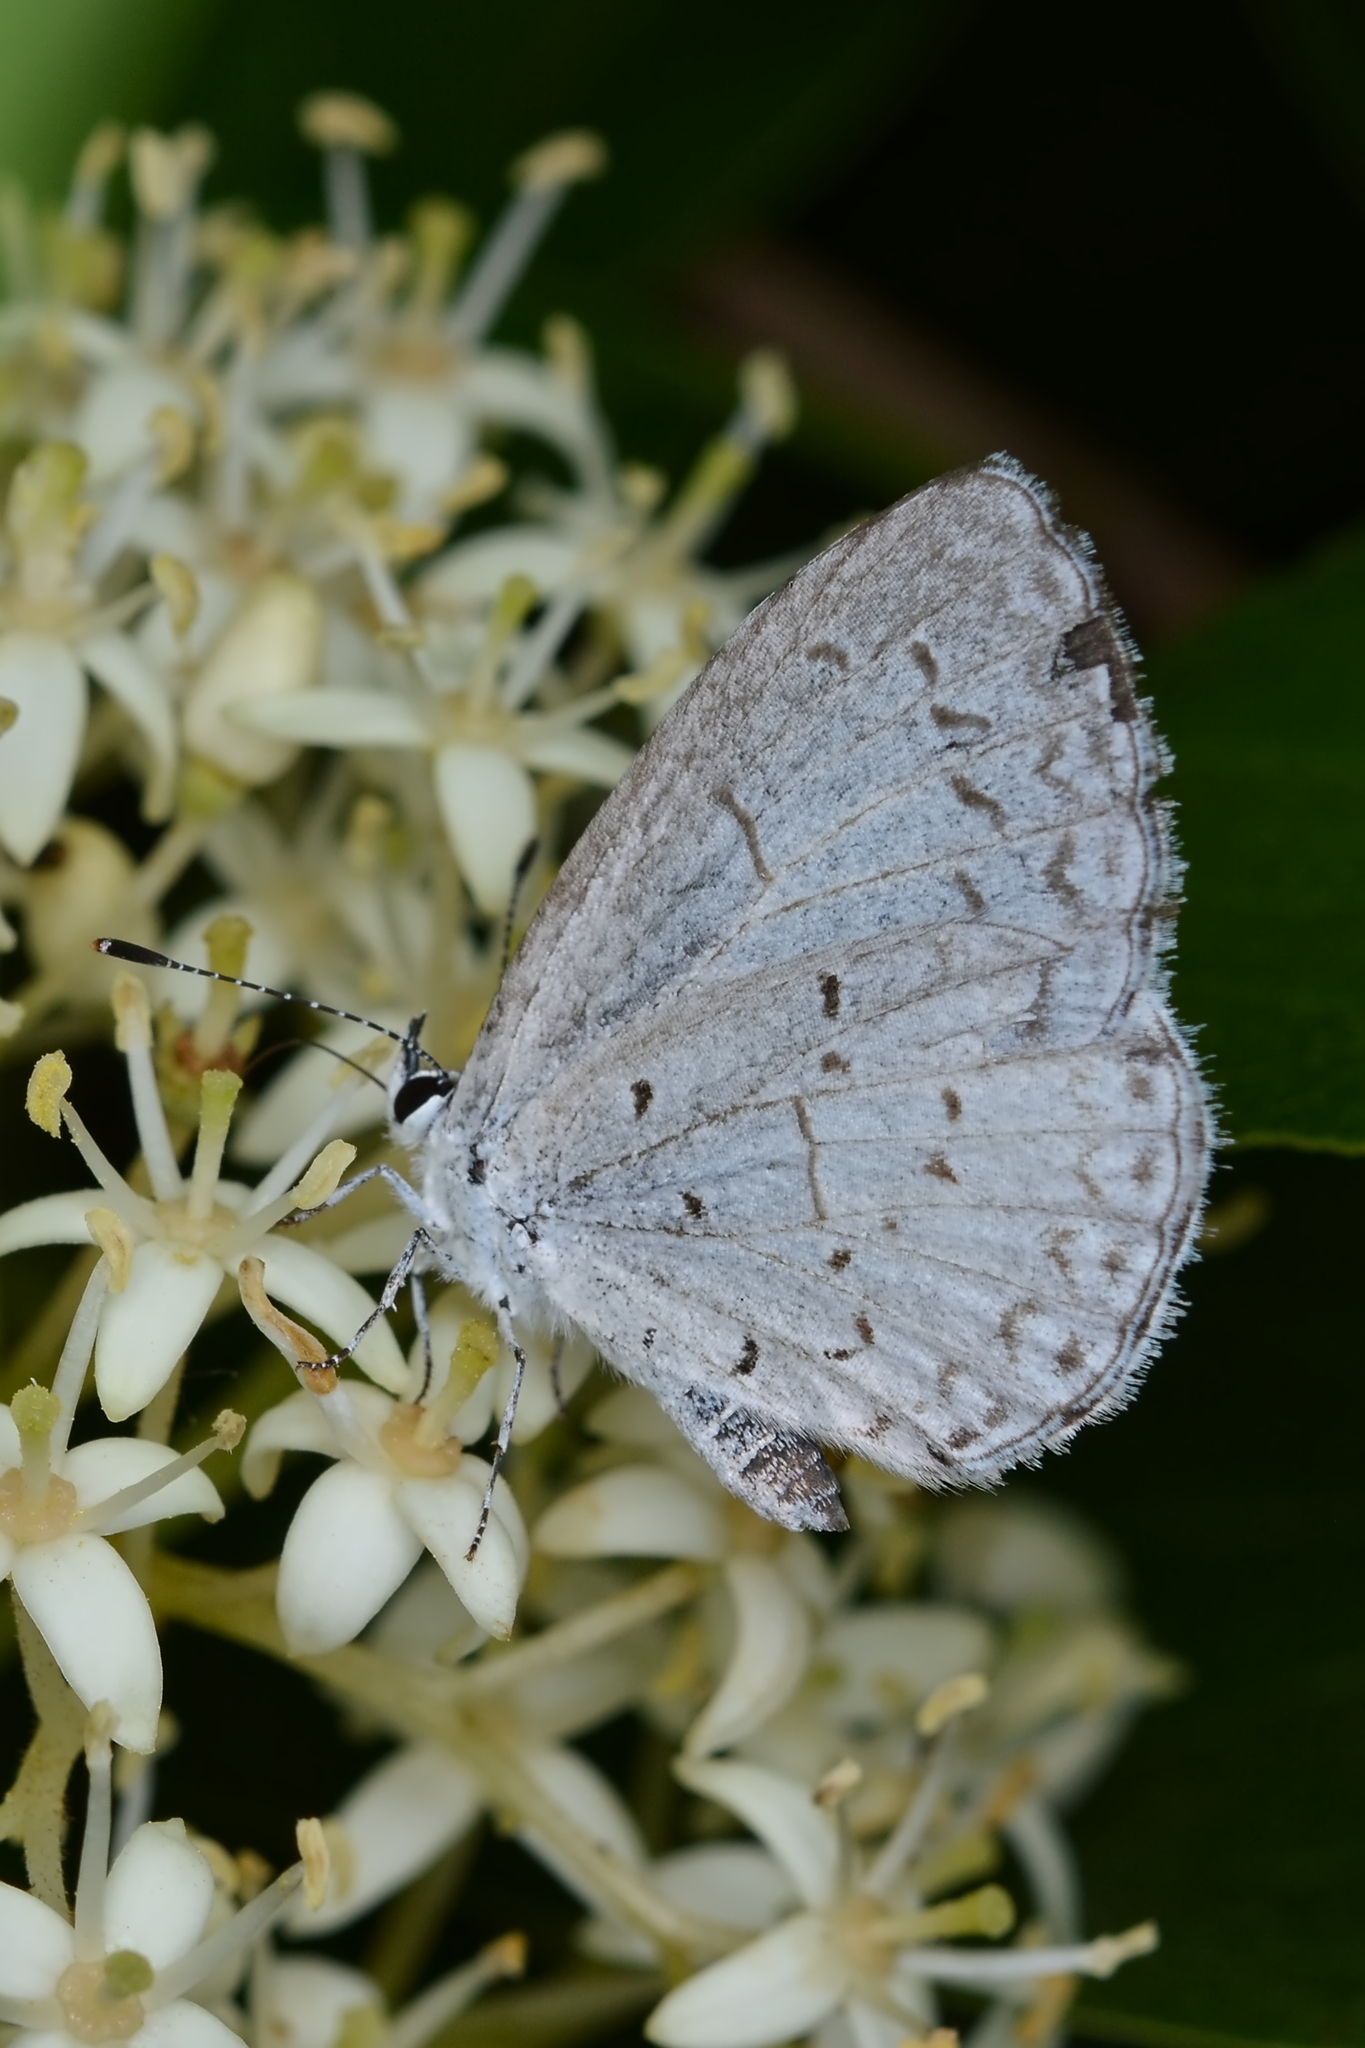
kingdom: Animalia
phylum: Arthropoda
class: Insecta
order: Lepidoptera
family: Lycaenidae
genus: Celastrina
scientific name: Celastrina
